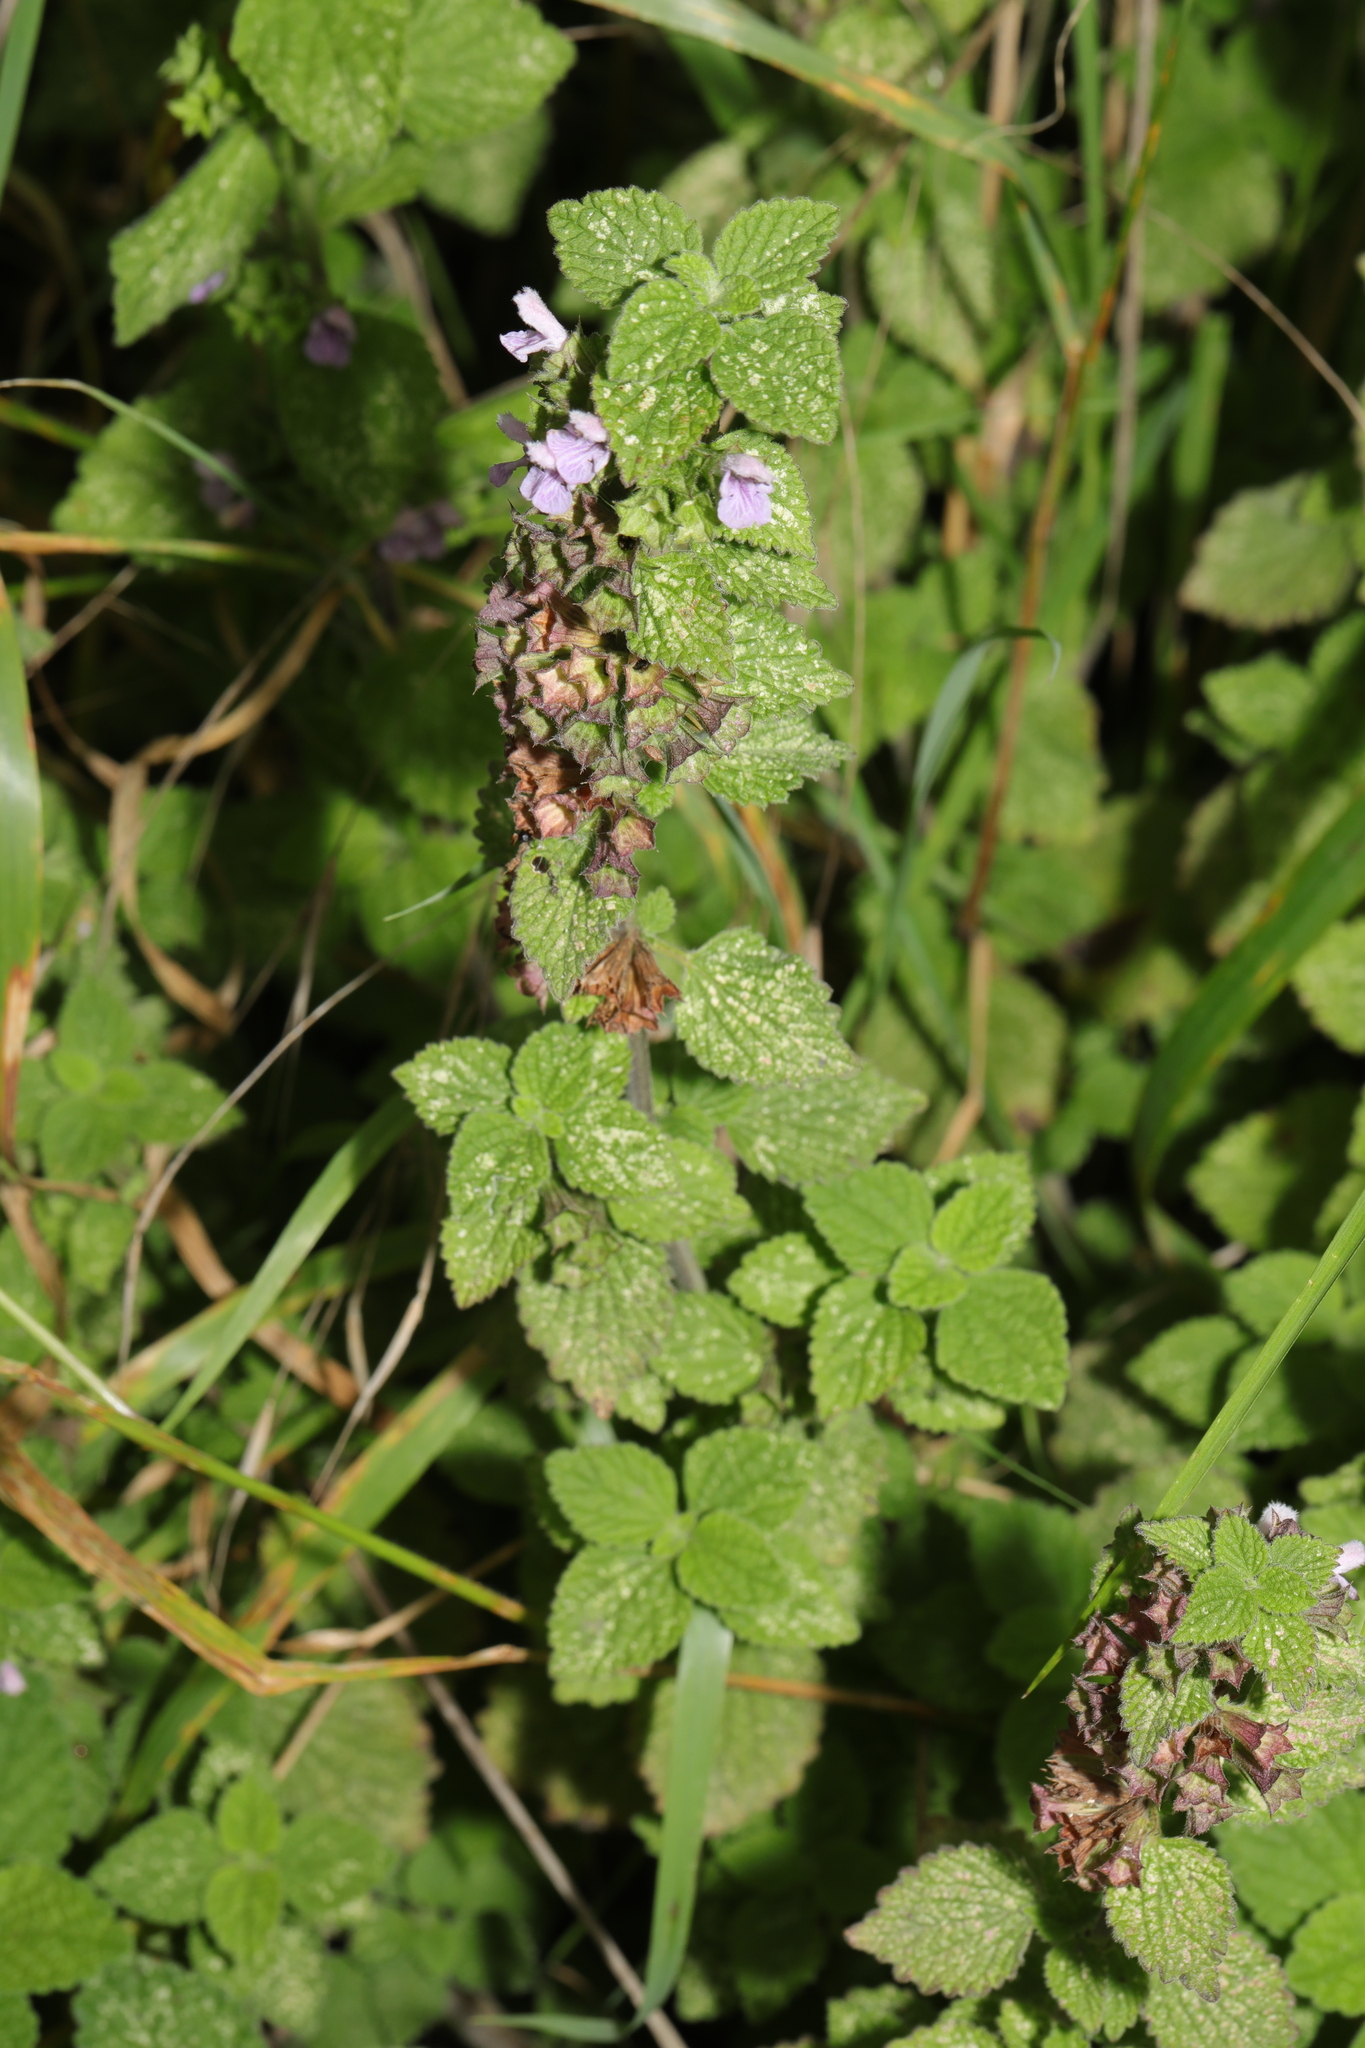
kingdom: Plantae
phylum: Tracheophyta
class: Magnoliopsida
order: Lamiales
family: Lamiaceae
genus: Ballota
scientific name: Ballota nigra
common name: Black horehound
